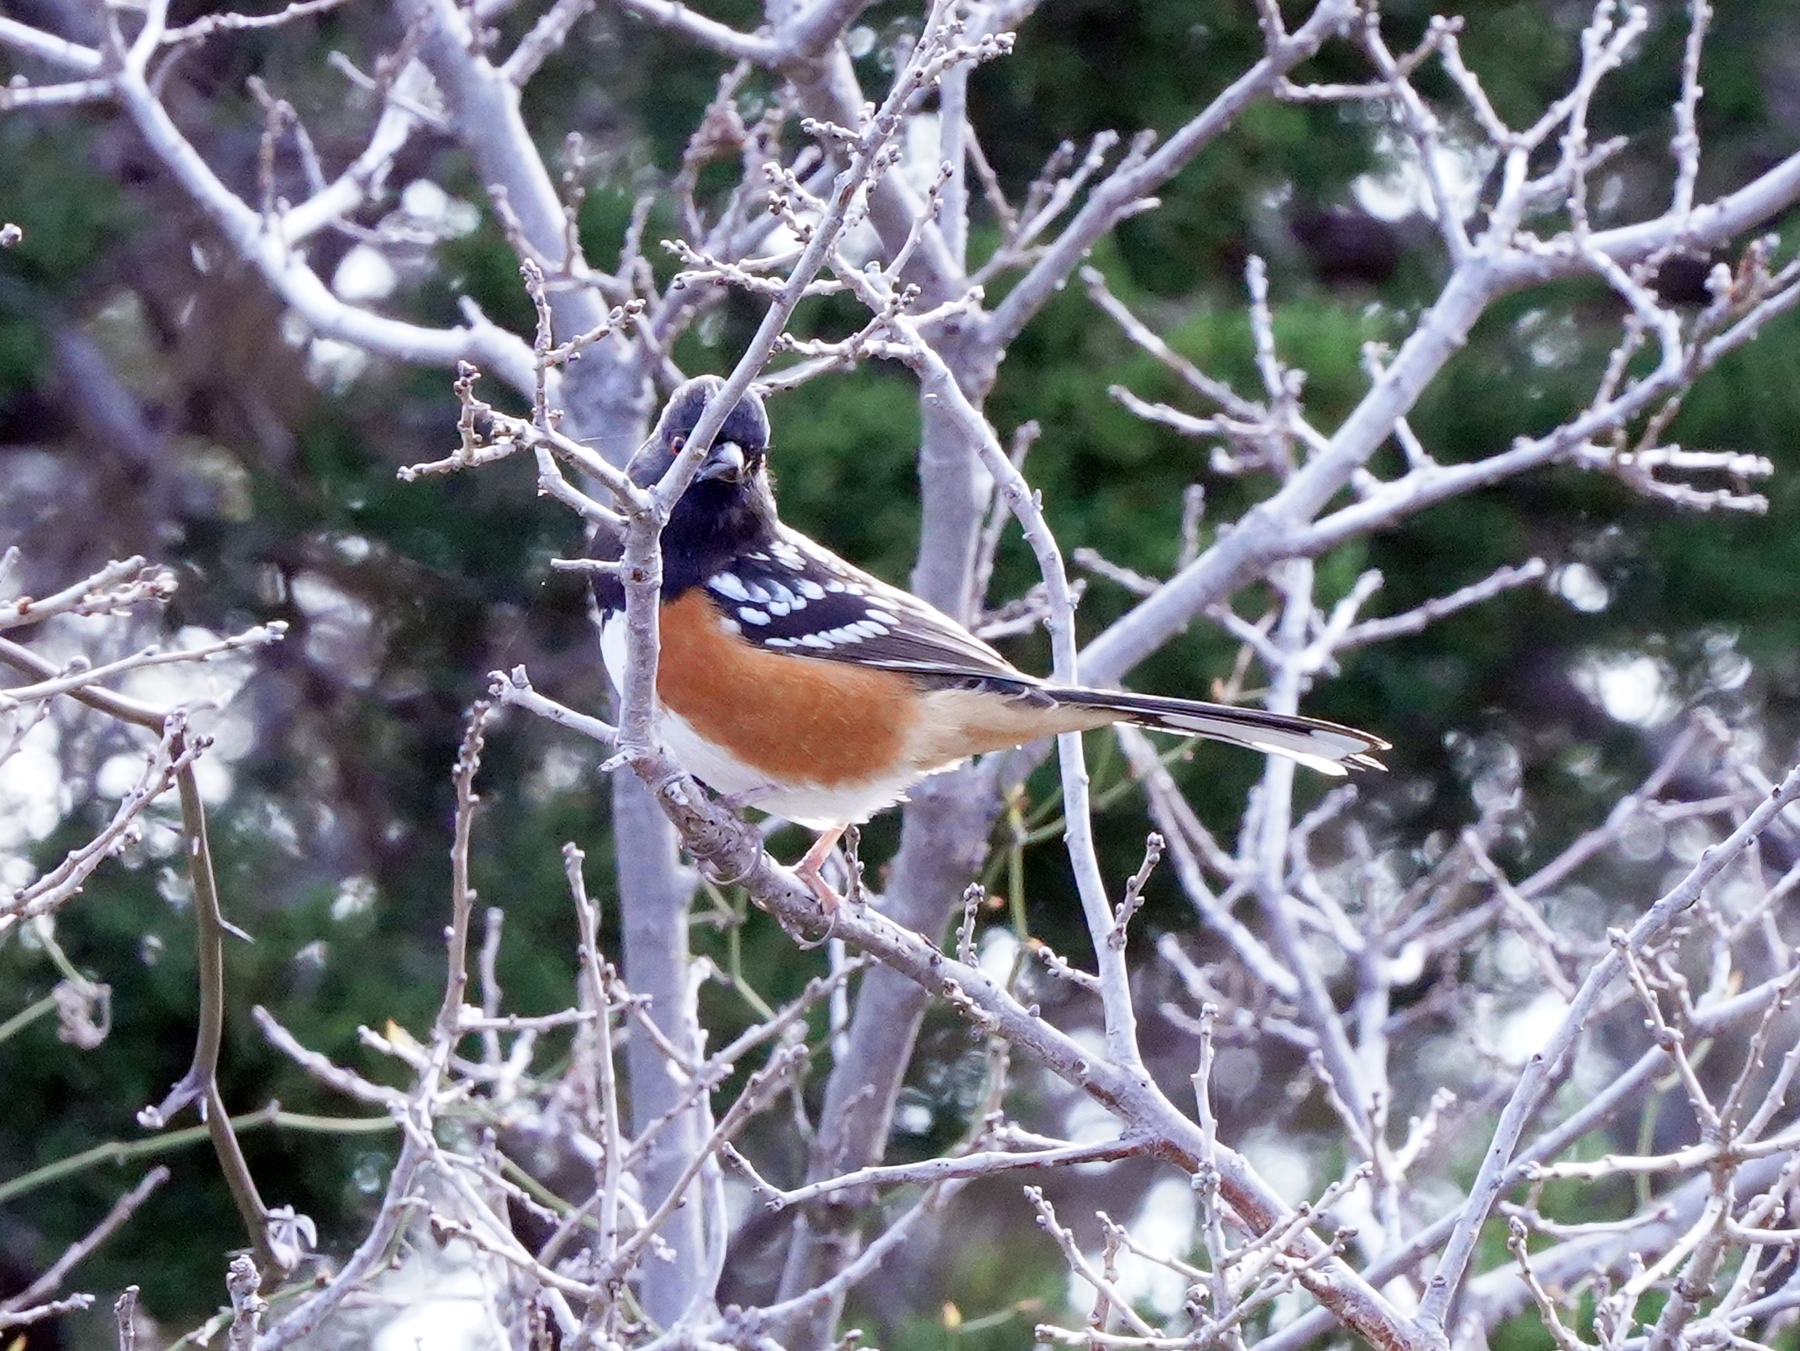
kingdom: Animalia
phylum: Chordata
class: Aves
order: Passeriformes
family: Passerellidae
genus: Pipilo
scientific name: Pipilo maculatus
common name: Spotted towhee
